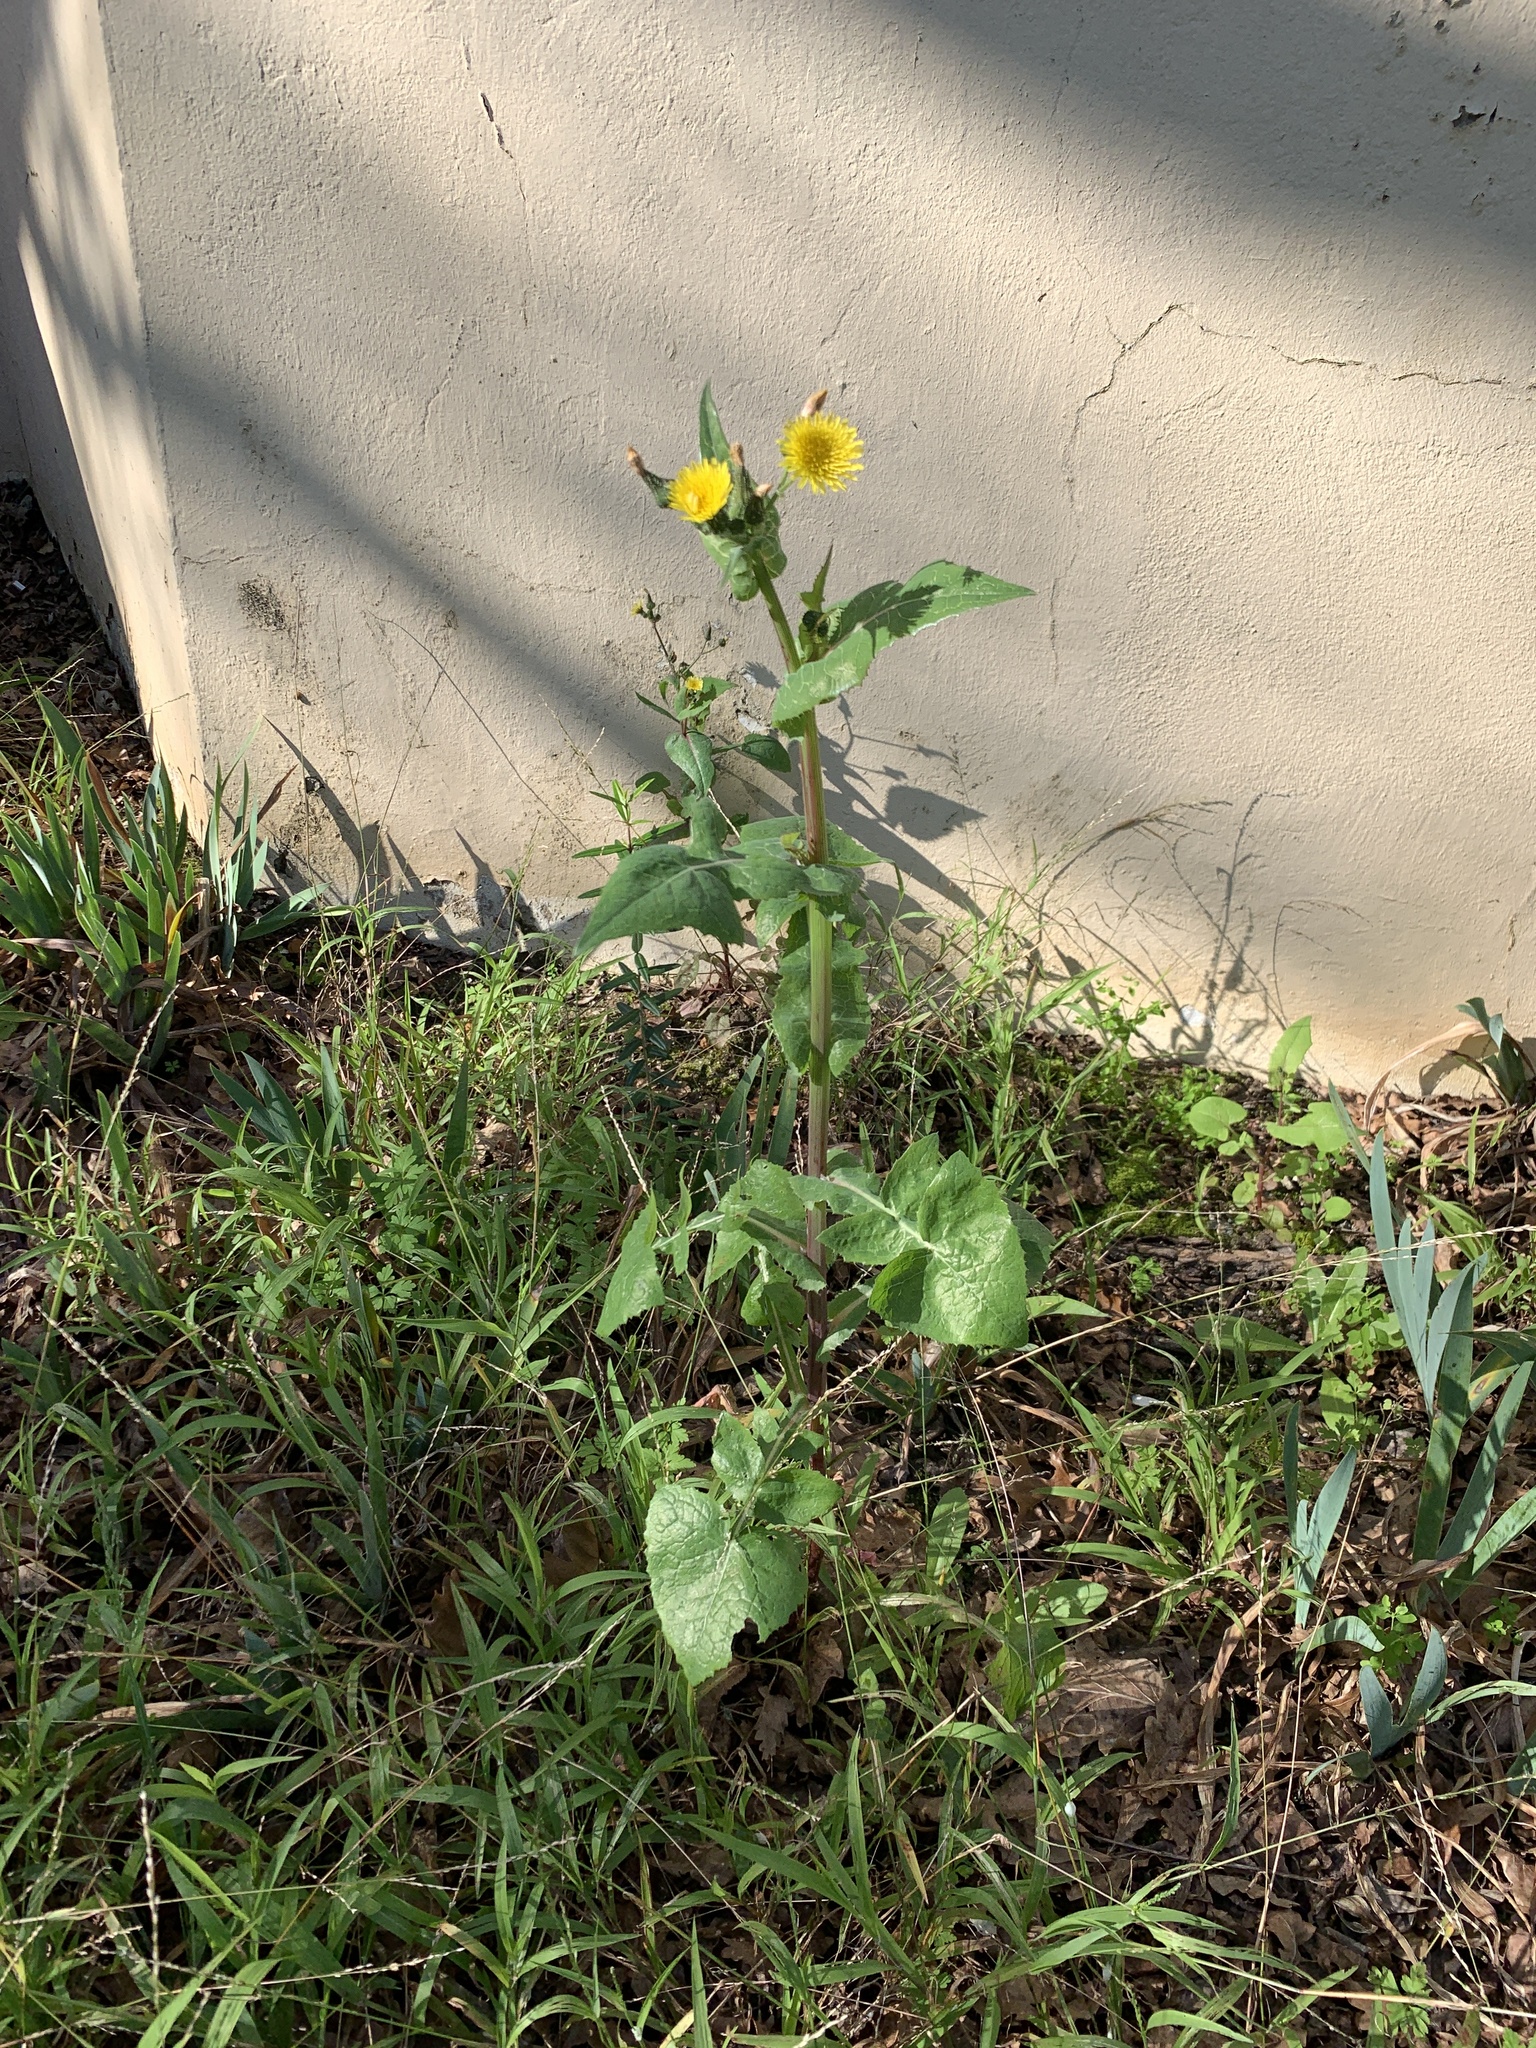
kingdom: Plantae
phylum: Tracheophyta
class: Magnoliopsida
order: Asterales
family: Asteraceae
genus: Sonchus
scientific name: Sonchus oleraceus
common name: Common sowthistle
